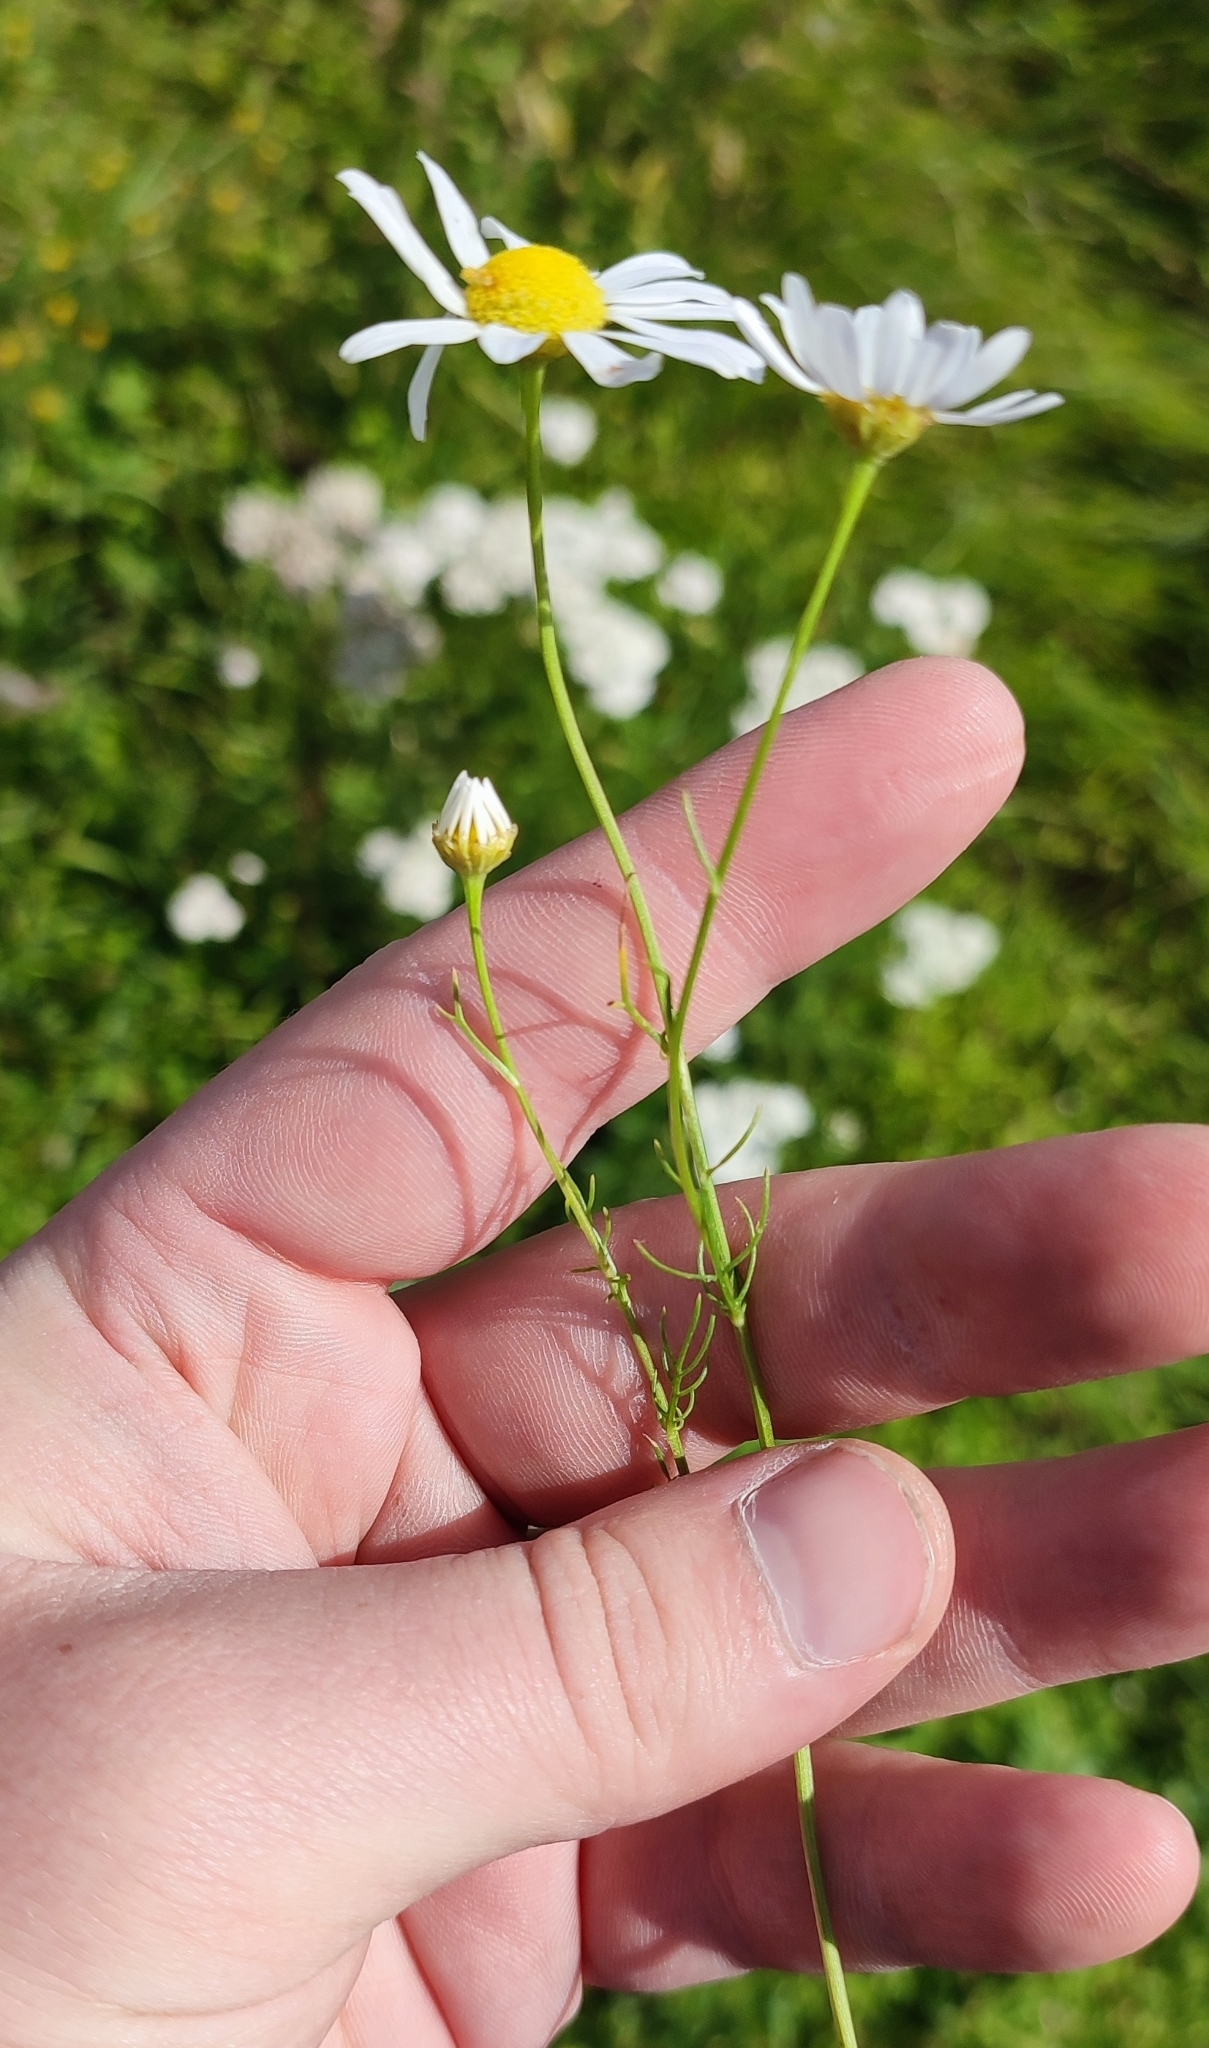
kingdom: Plantae
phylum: Tracheophyta
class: Magnoliopsida
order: Asterales
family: Asteraceae
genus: Tripleurospermum
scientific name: Tripleurospermum inodorum
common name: Scentless mayweed
